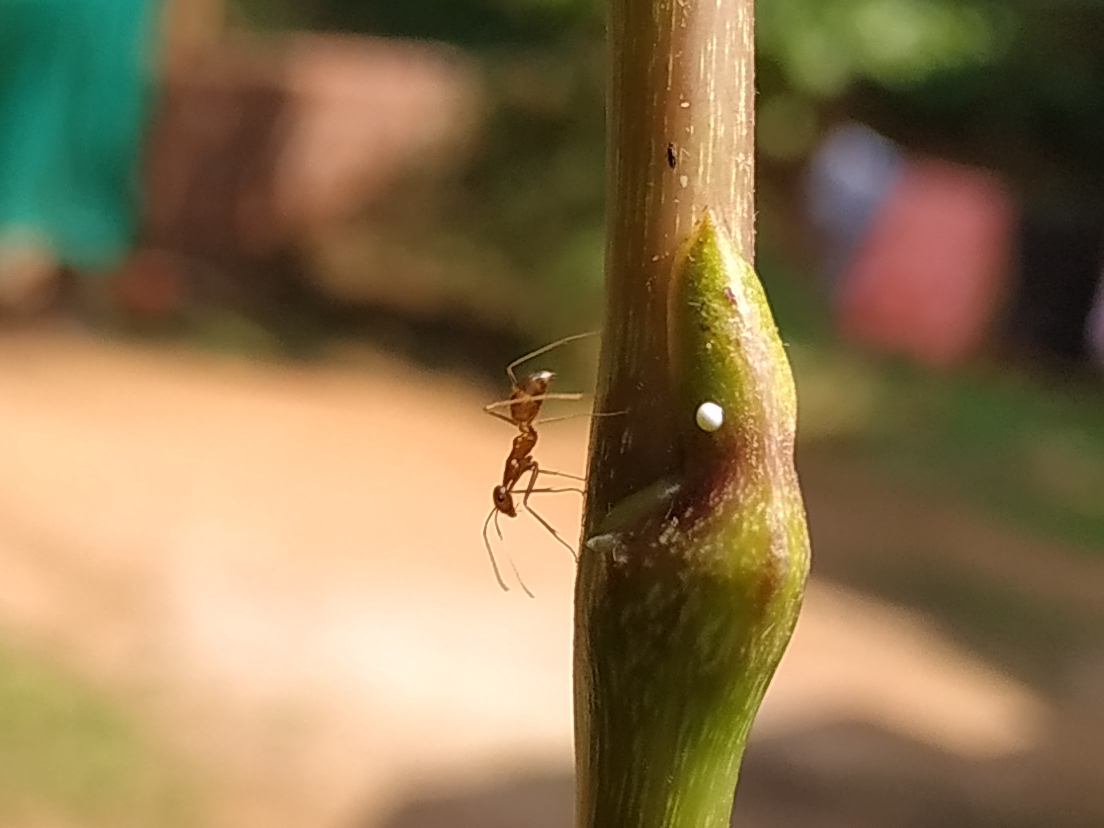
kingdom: Animalia
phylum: Arthropoda
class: Insecta
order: Hymenoptera
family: Formicidae
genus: Anoplolepis
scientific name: Anoplolepis gracilipes
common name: Ant
